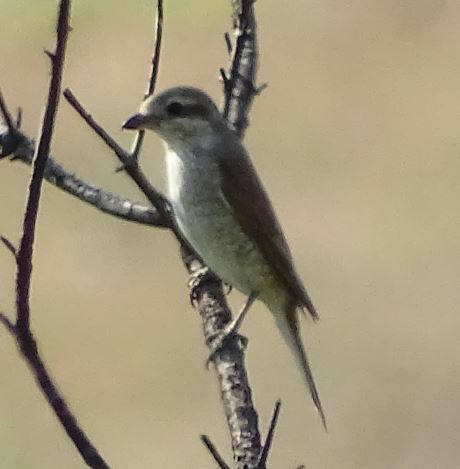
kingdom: Animalia
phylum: Chordata
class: Aves
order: Passeriformes
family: Laniidae
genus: Lanius
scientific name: Lanius collurio
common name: Red-backed shrike
